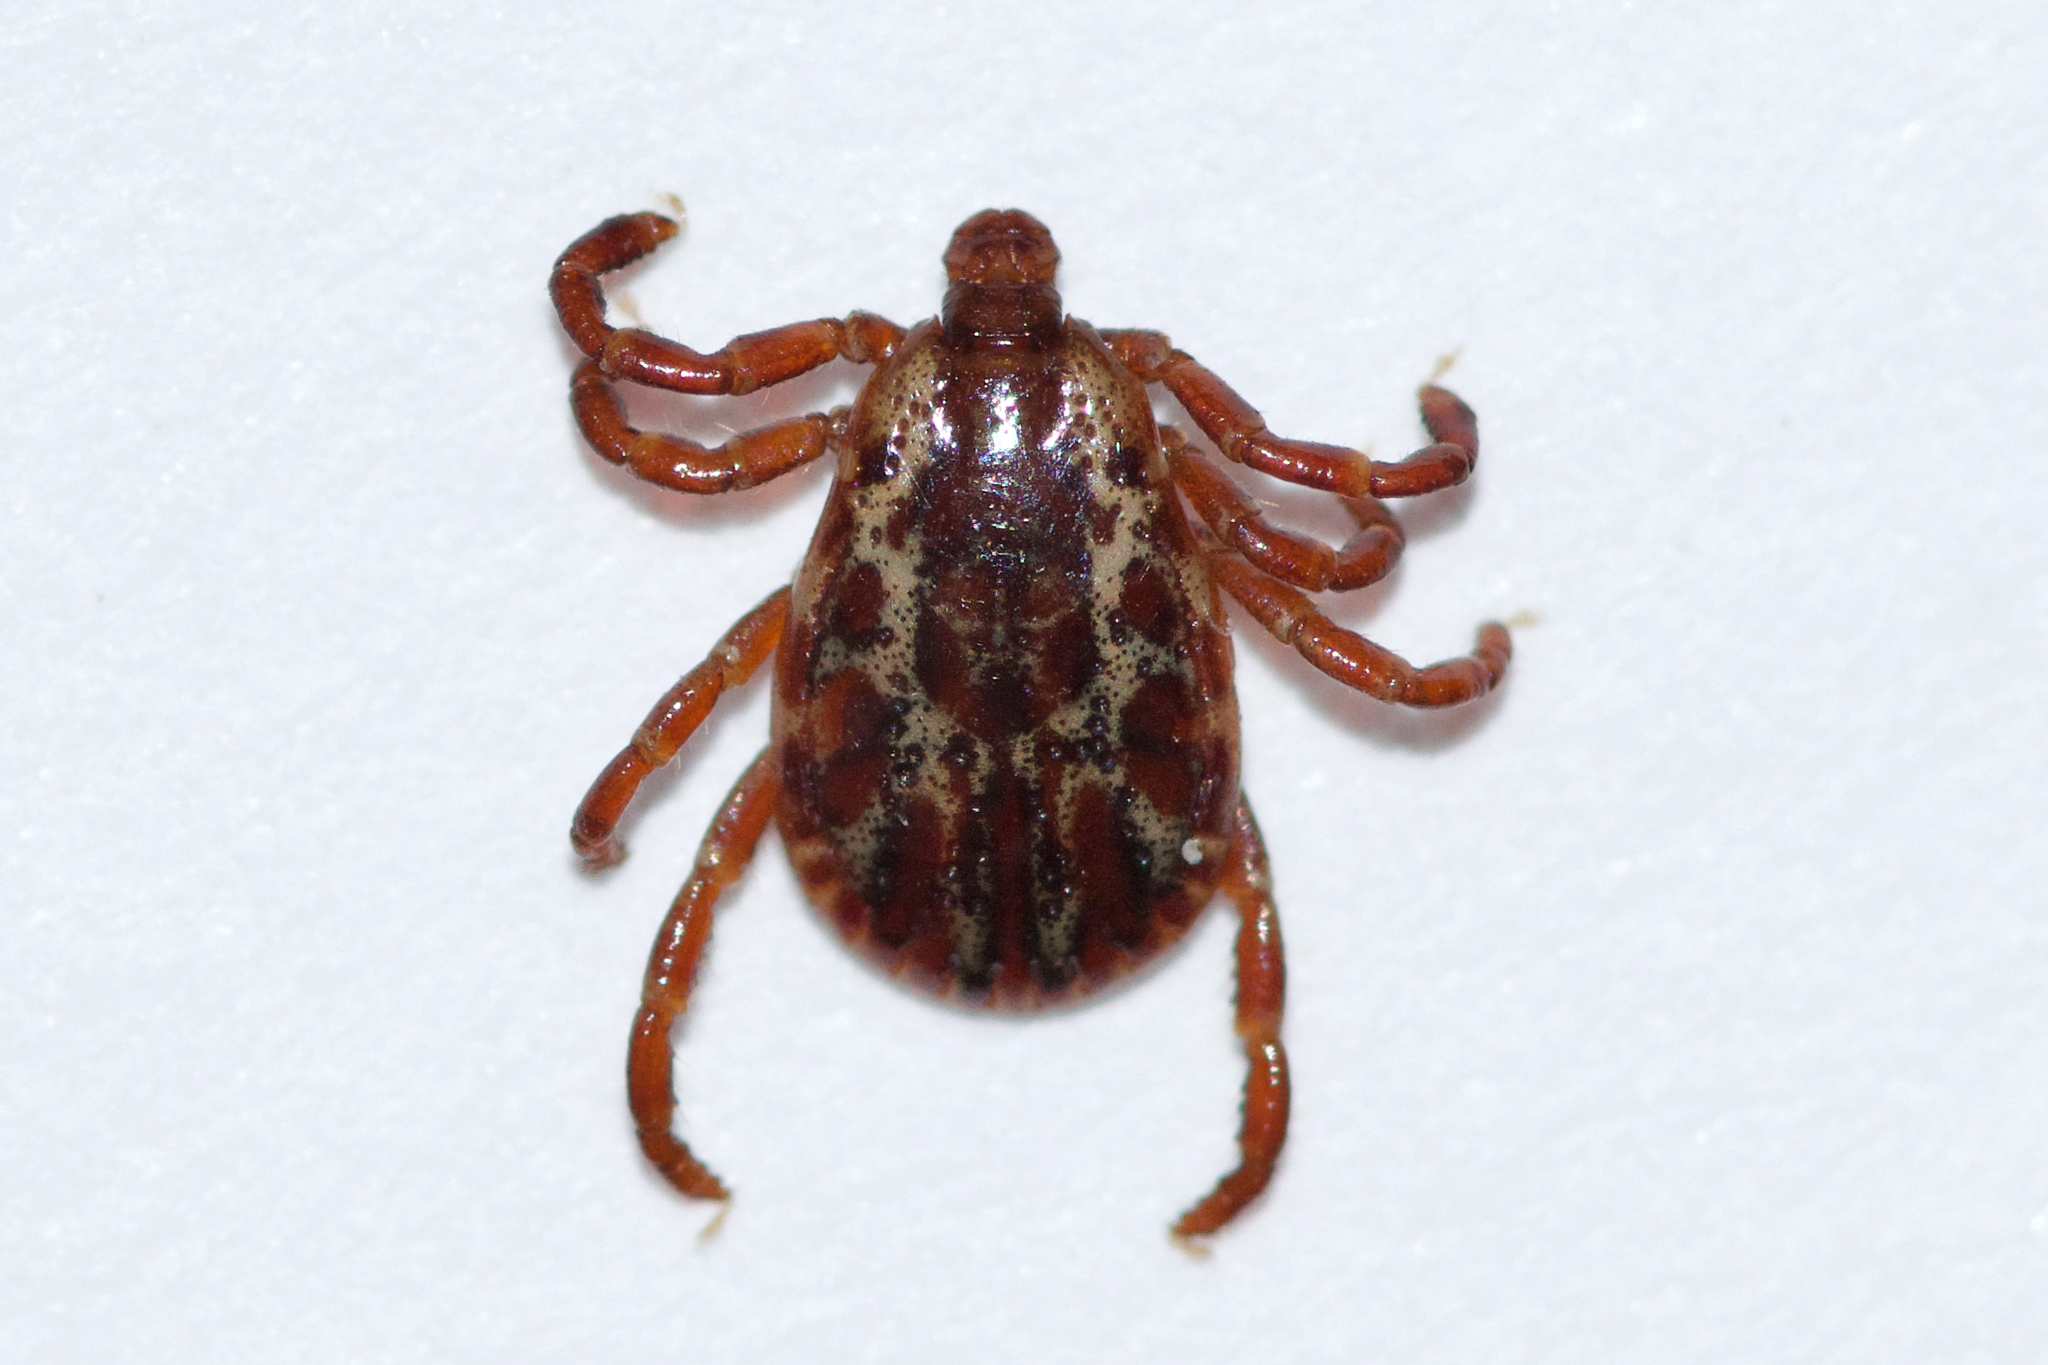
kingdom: Animalia
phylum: Arthropoda
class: Arachnida
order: Ixodida
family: Ixodidae
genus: Dermacentor
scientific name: Dermacentor variabilis
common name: American dog tick
